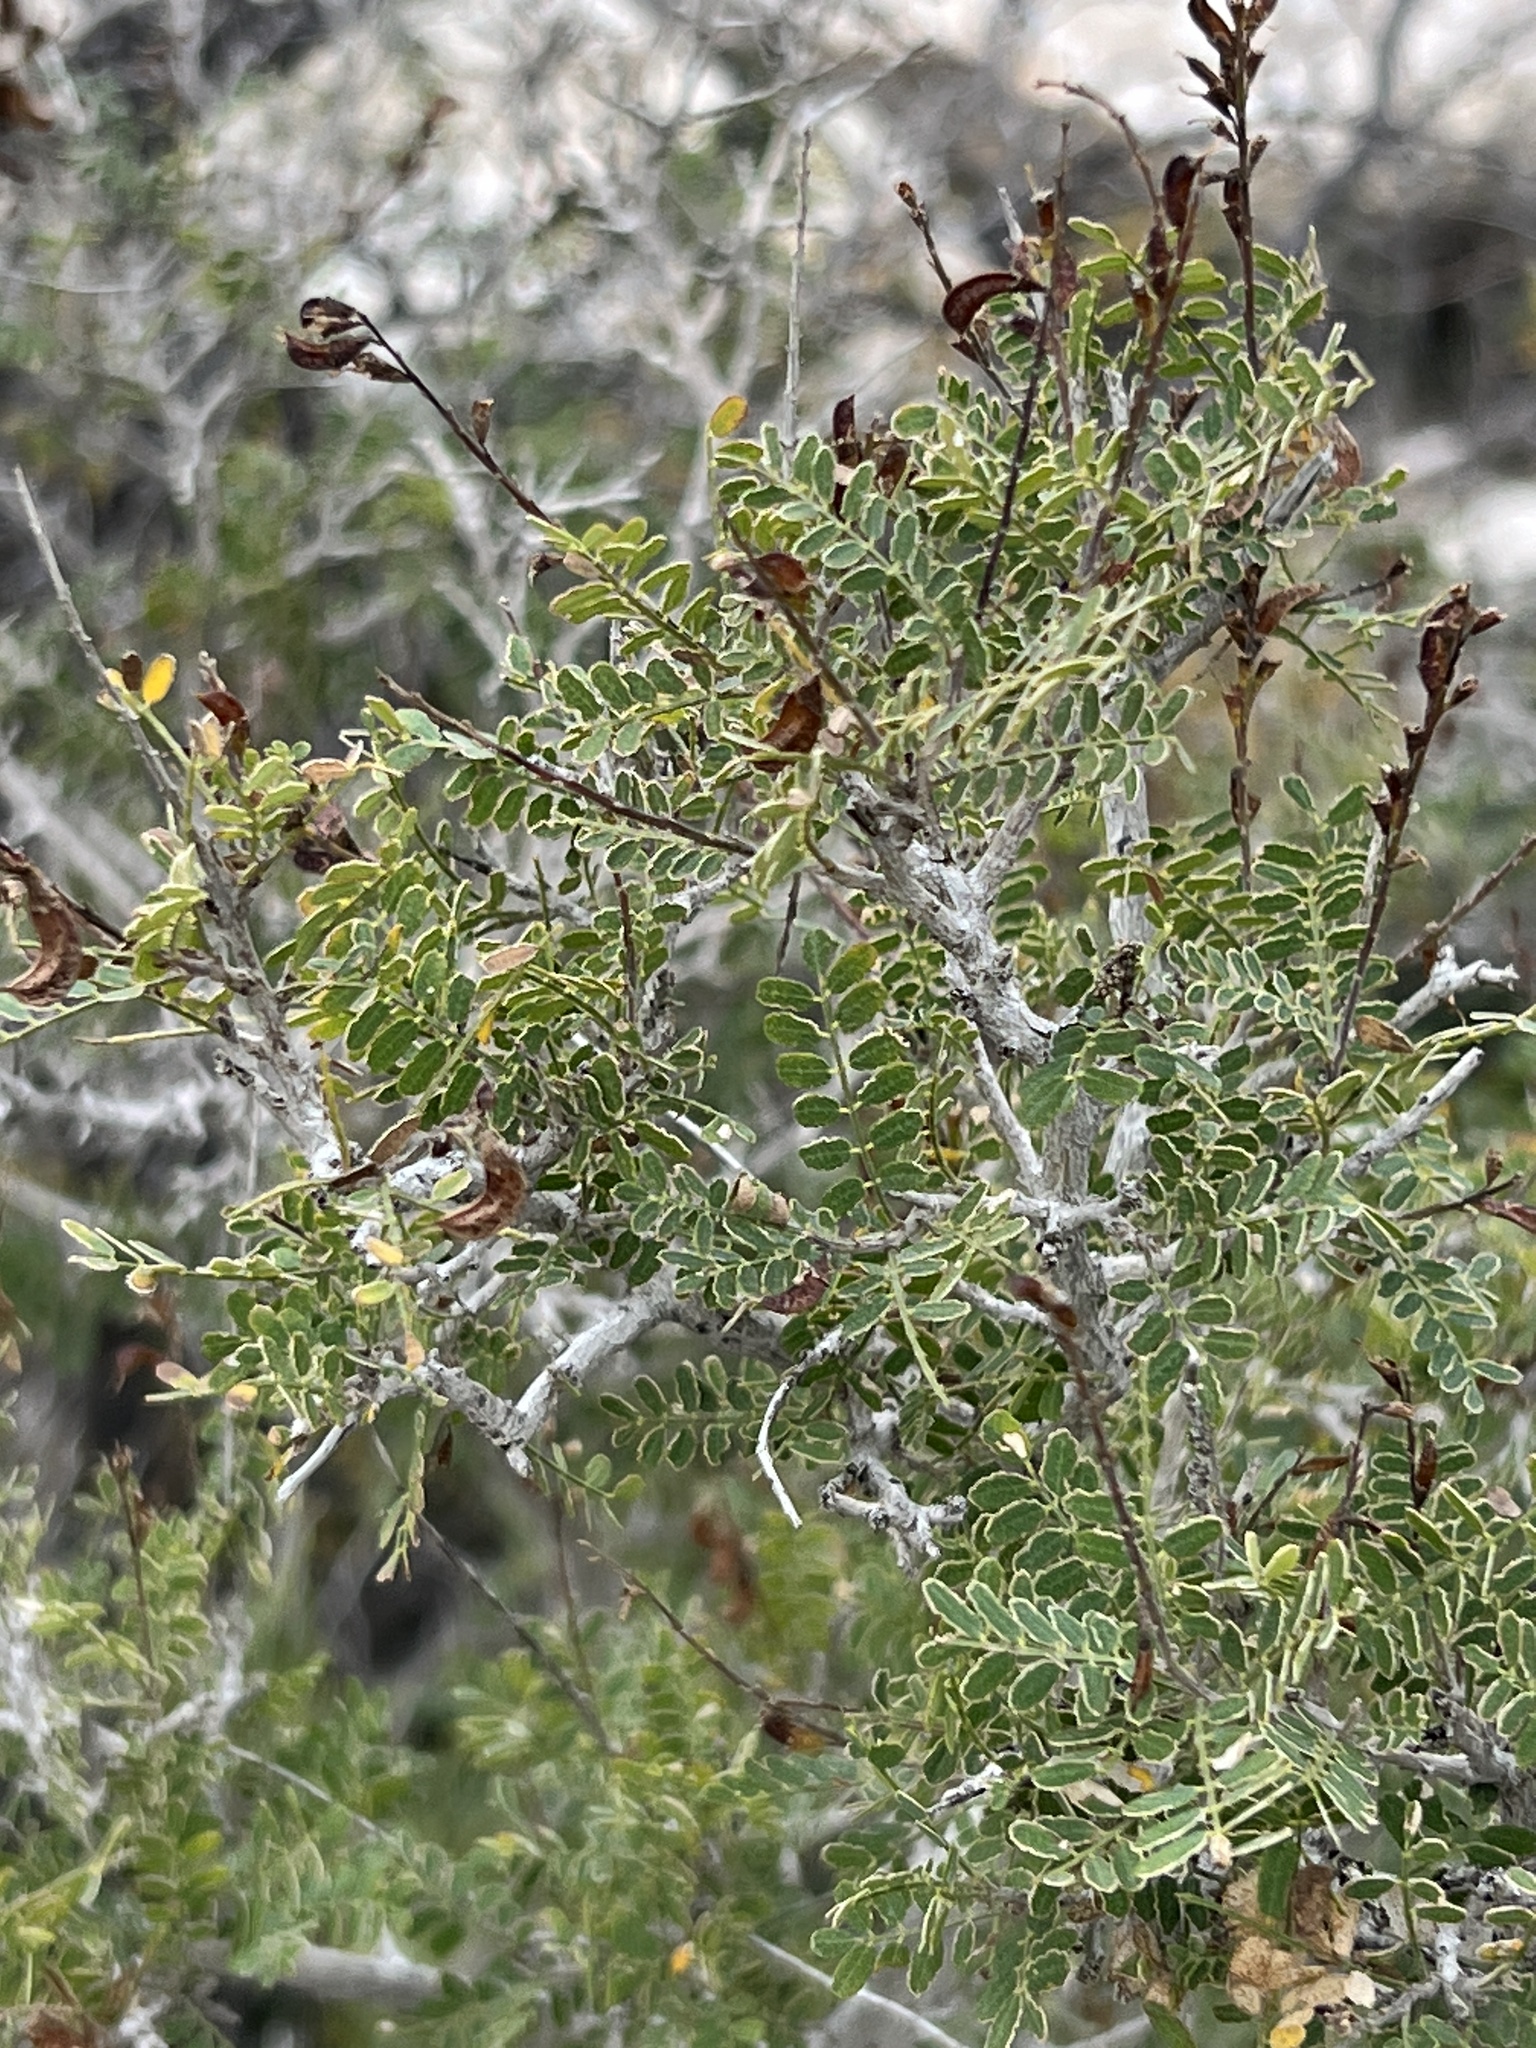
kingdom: Plantae
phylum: Tracheophyta
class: Magnoliopsida
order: Fabales
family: Fabaceae
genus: Eysenhardtia
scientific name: Eysenhardtia texana
